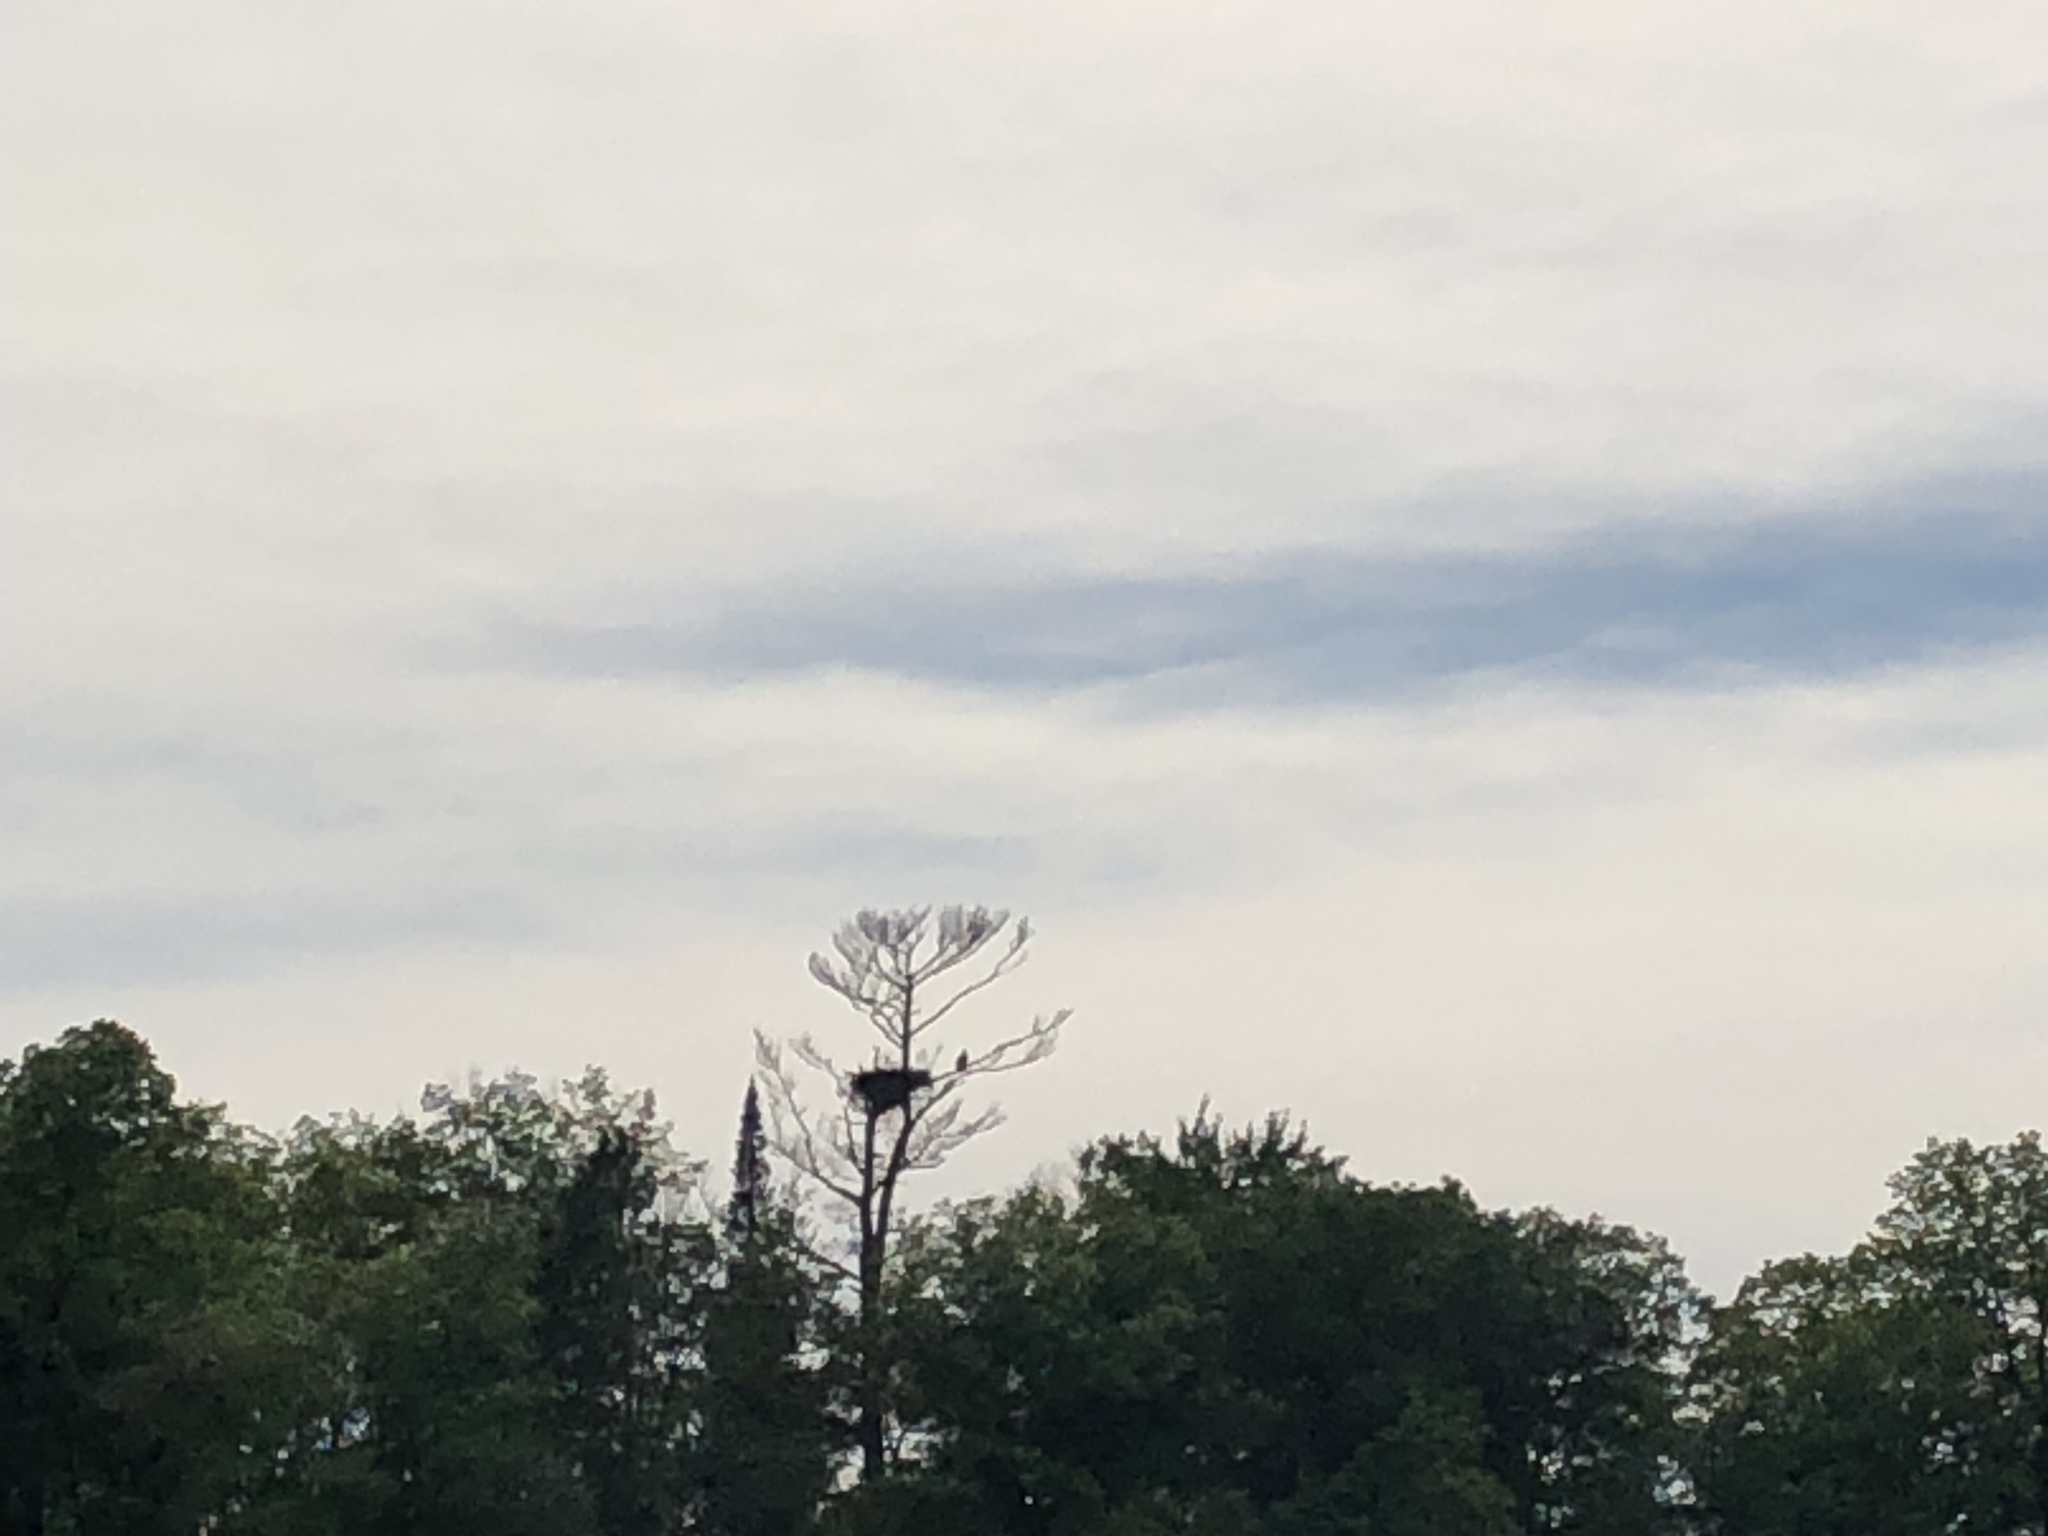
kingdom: Animalia
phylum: Chordata
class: Aves
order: Accipitriformes
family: Accipitridae
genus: Haliaeetus
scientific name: Haliaeetus leucocephalus
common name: Bald eagle
